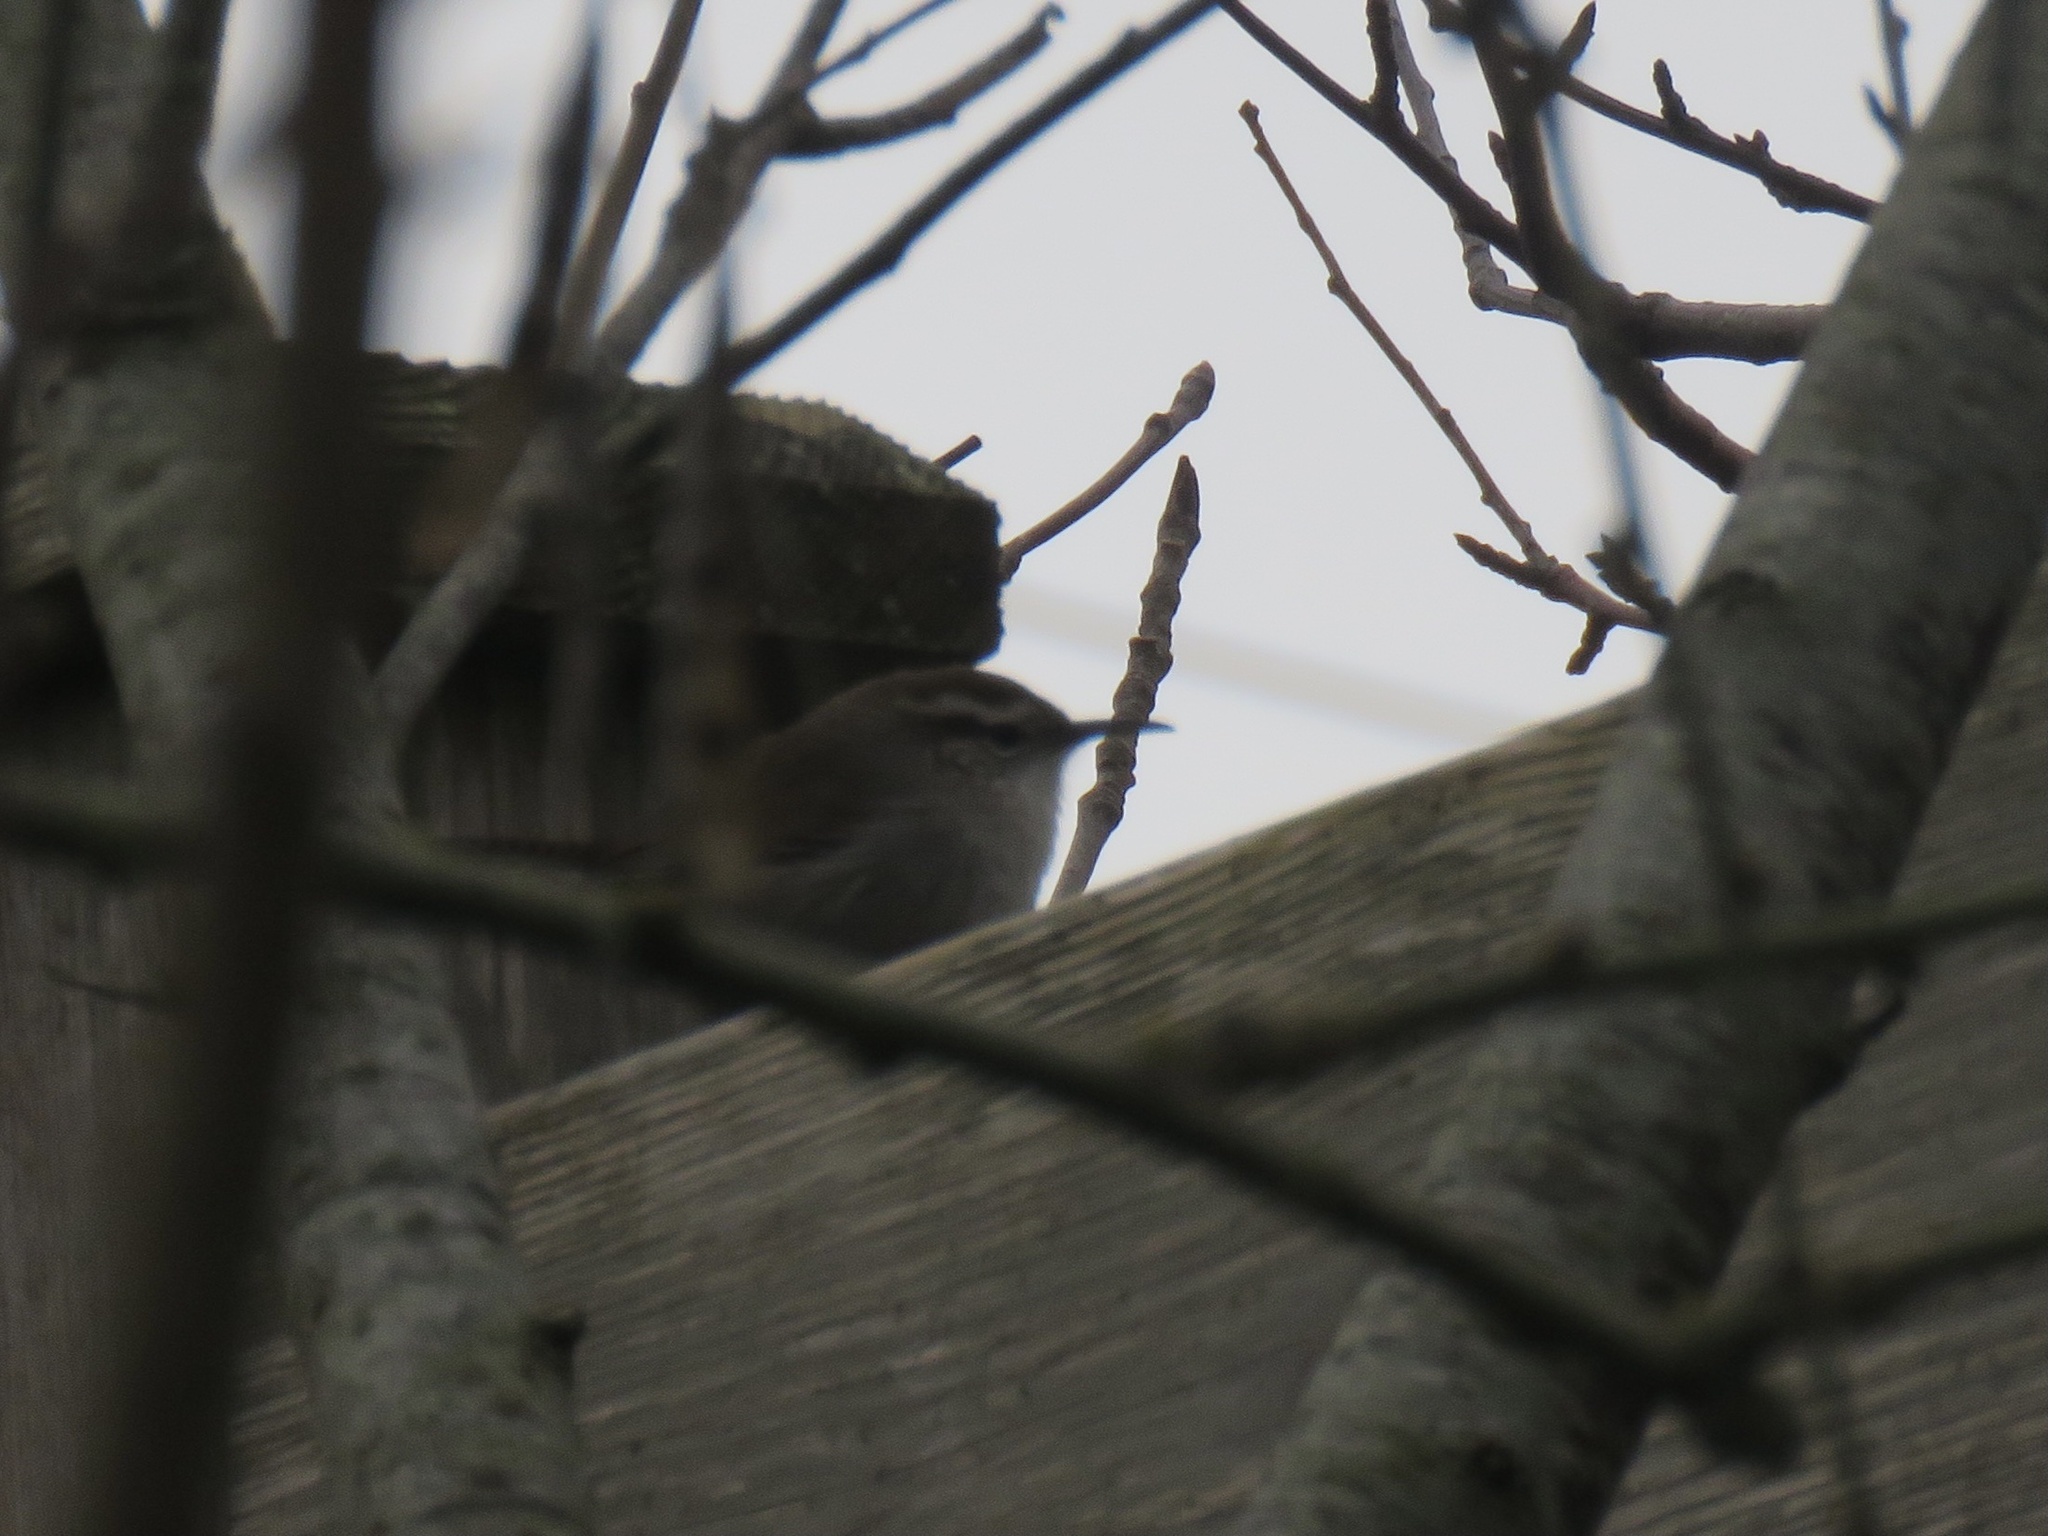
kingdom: Animalia
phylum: Chordata
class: Aves
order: Passeriformes
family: Troglodytidae
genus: Thryomanes
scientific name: Thryomanes bewickii
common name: Bewick's wren
